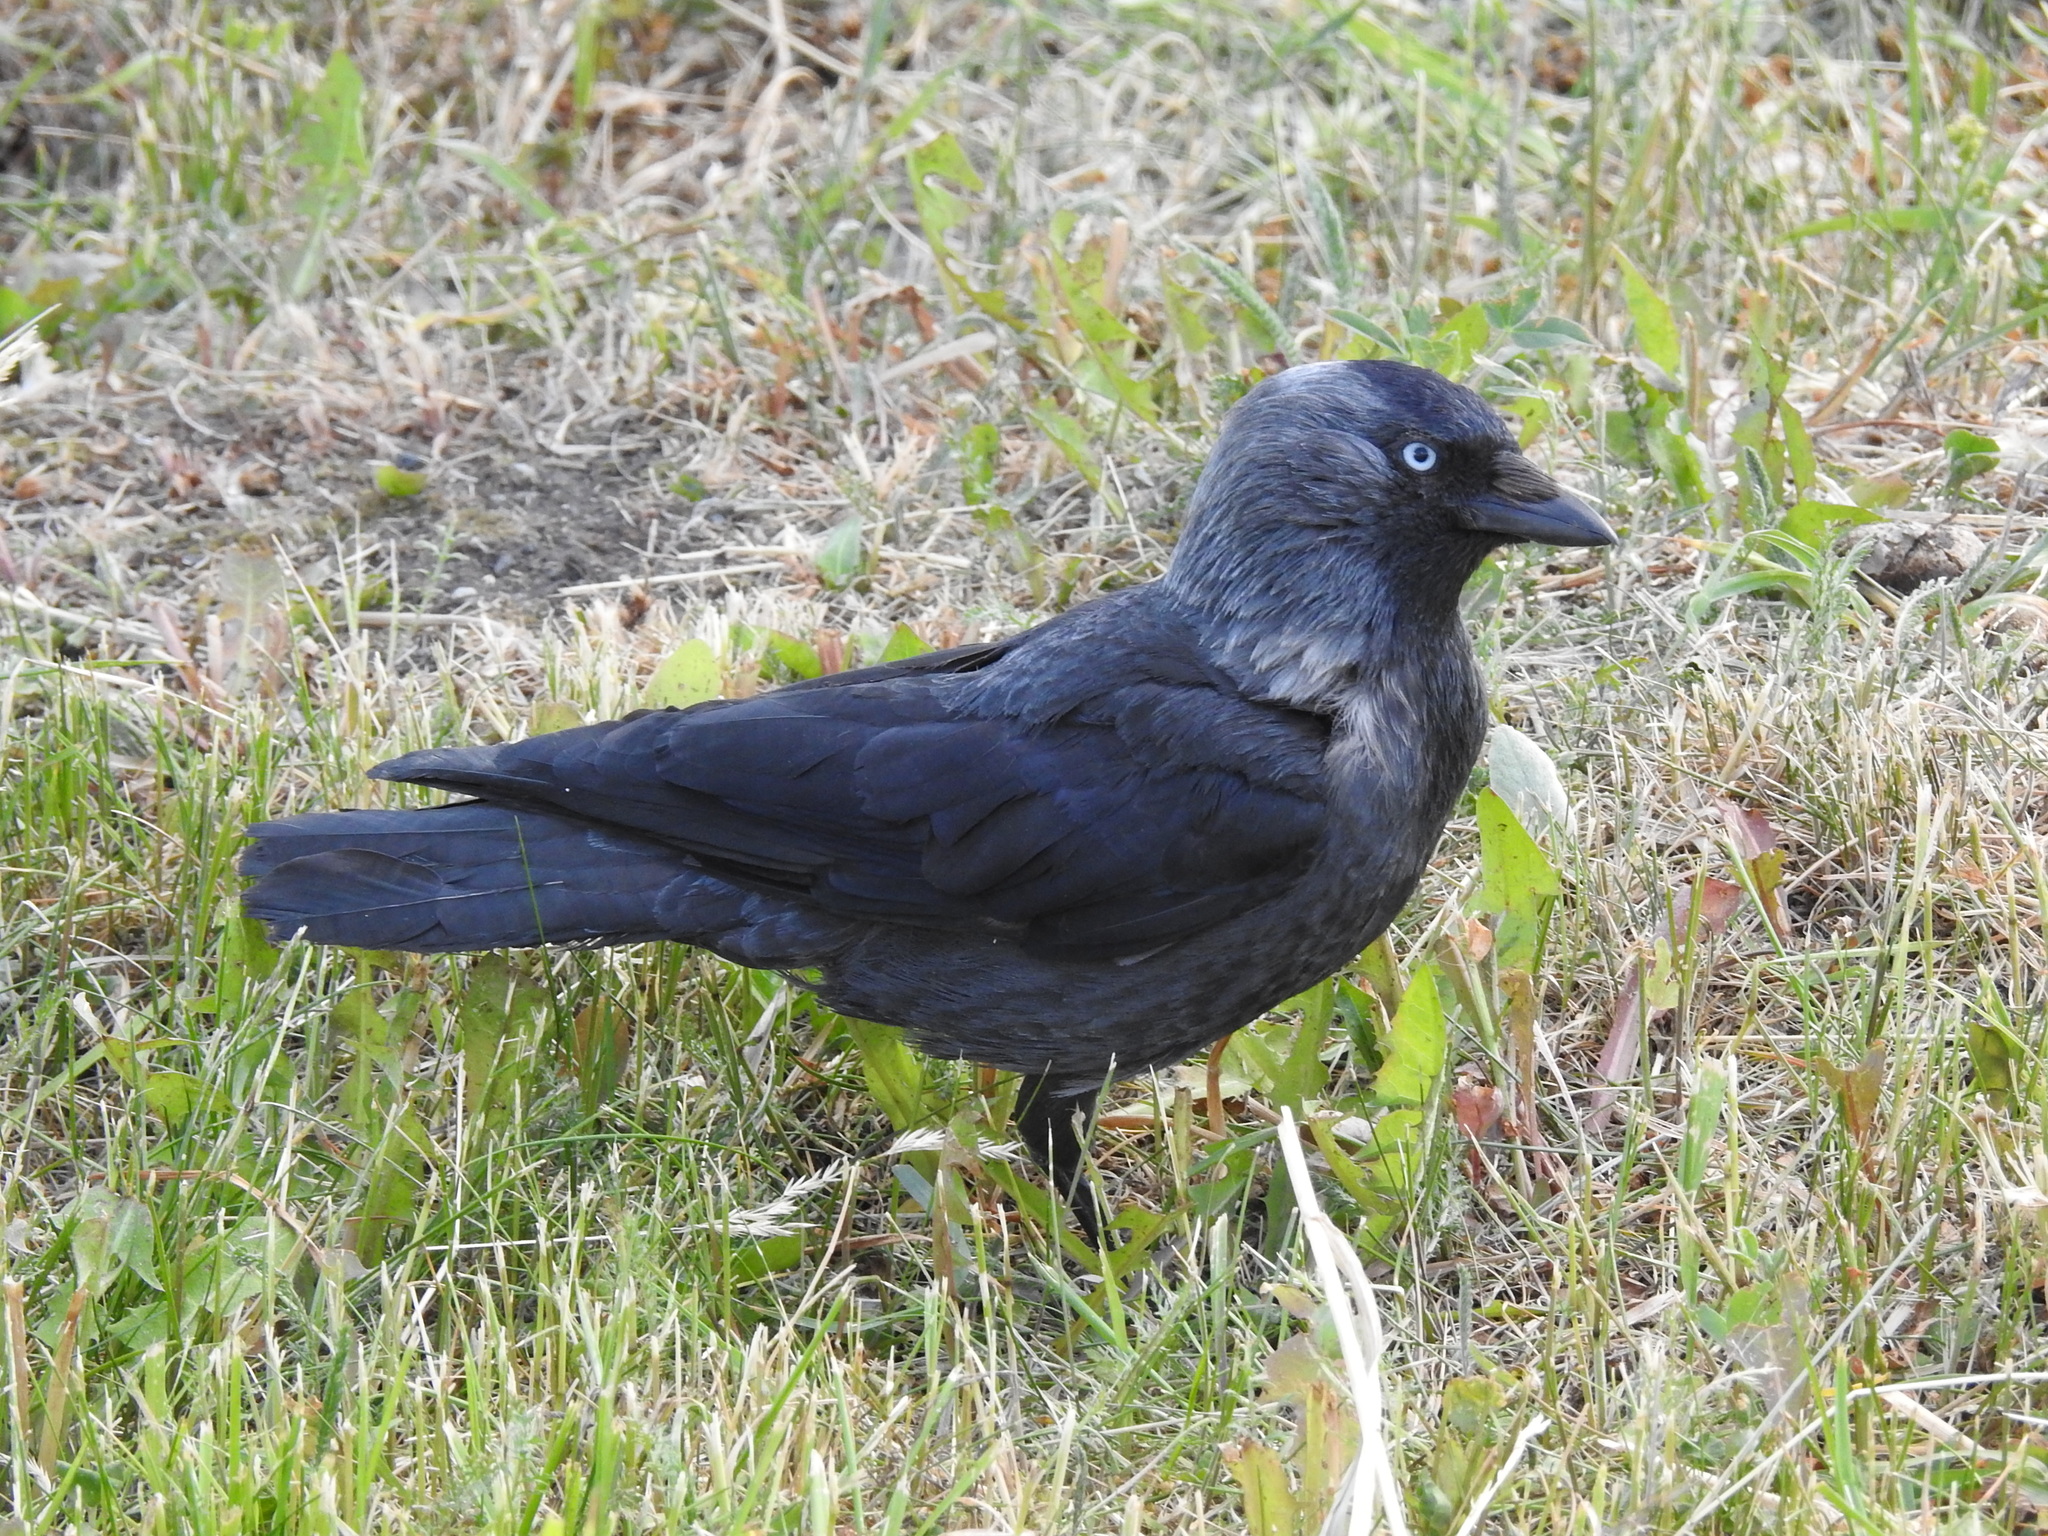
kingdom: Animalia
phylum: Chordata
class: Aves
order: Passeriformes
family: Corvidae
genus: Coloeus
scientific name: Coloeus monedula
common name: Western jackdaw
